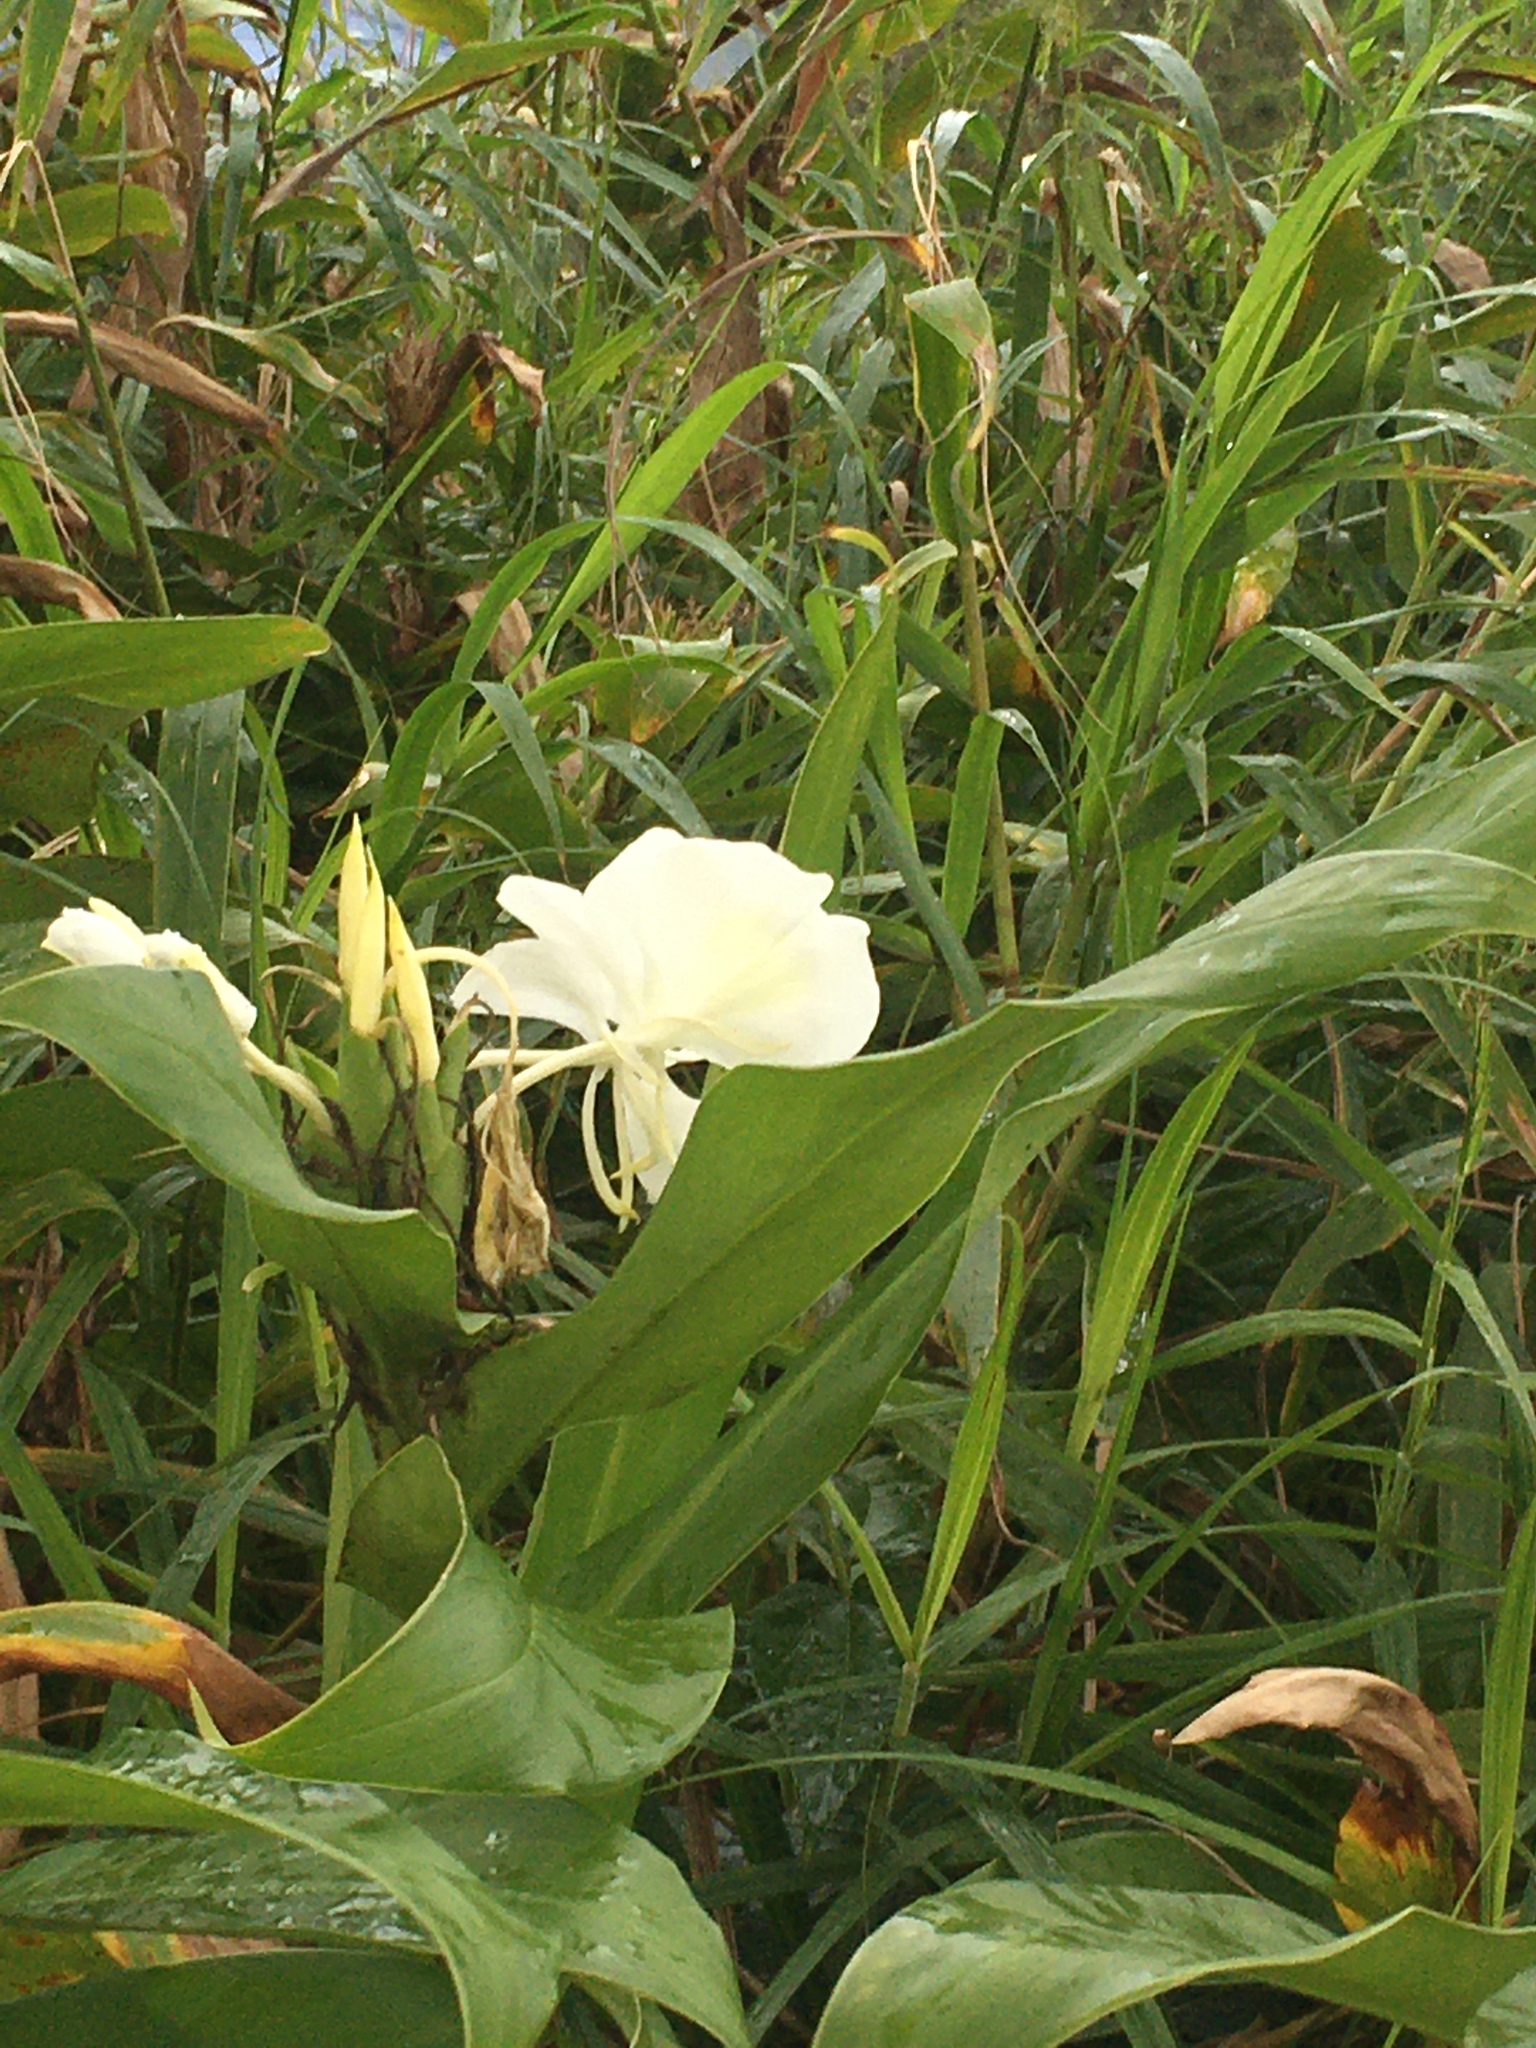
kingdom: Plantae
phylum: Tracheophyta
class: Liliopsida
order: Zingiberales
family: Zingiberaceae
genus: Hedychium
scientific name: Hedychium coronarium
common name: White garland-lily
